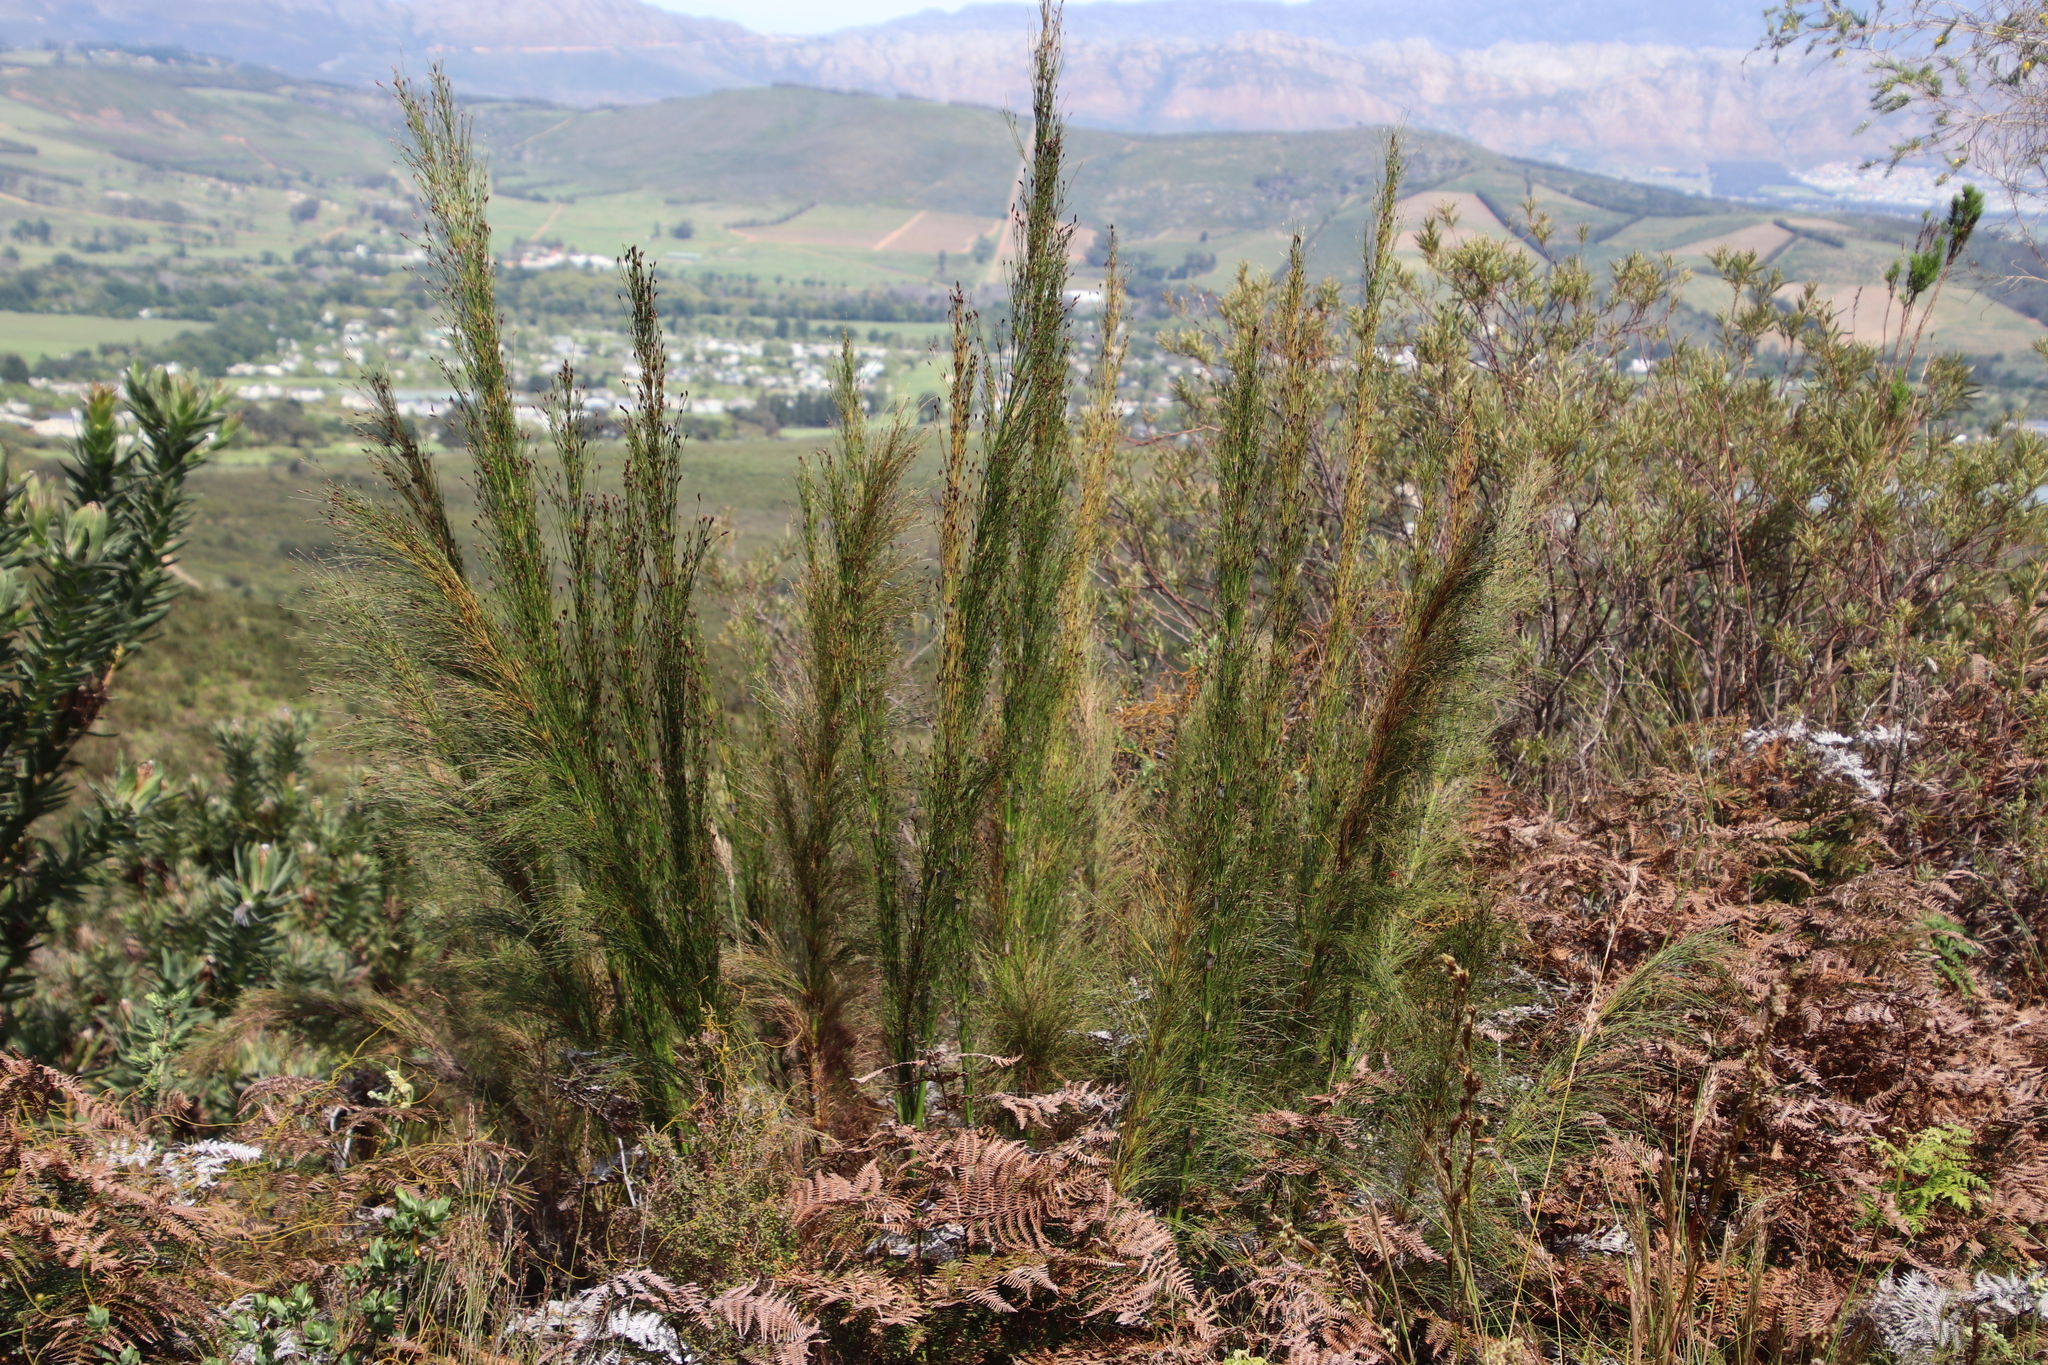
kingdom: Plantae
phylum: Tracheophyta
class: Liliopsida
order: Poales
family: Restionaceae
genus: Restio
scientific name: Restio subverticillatus
